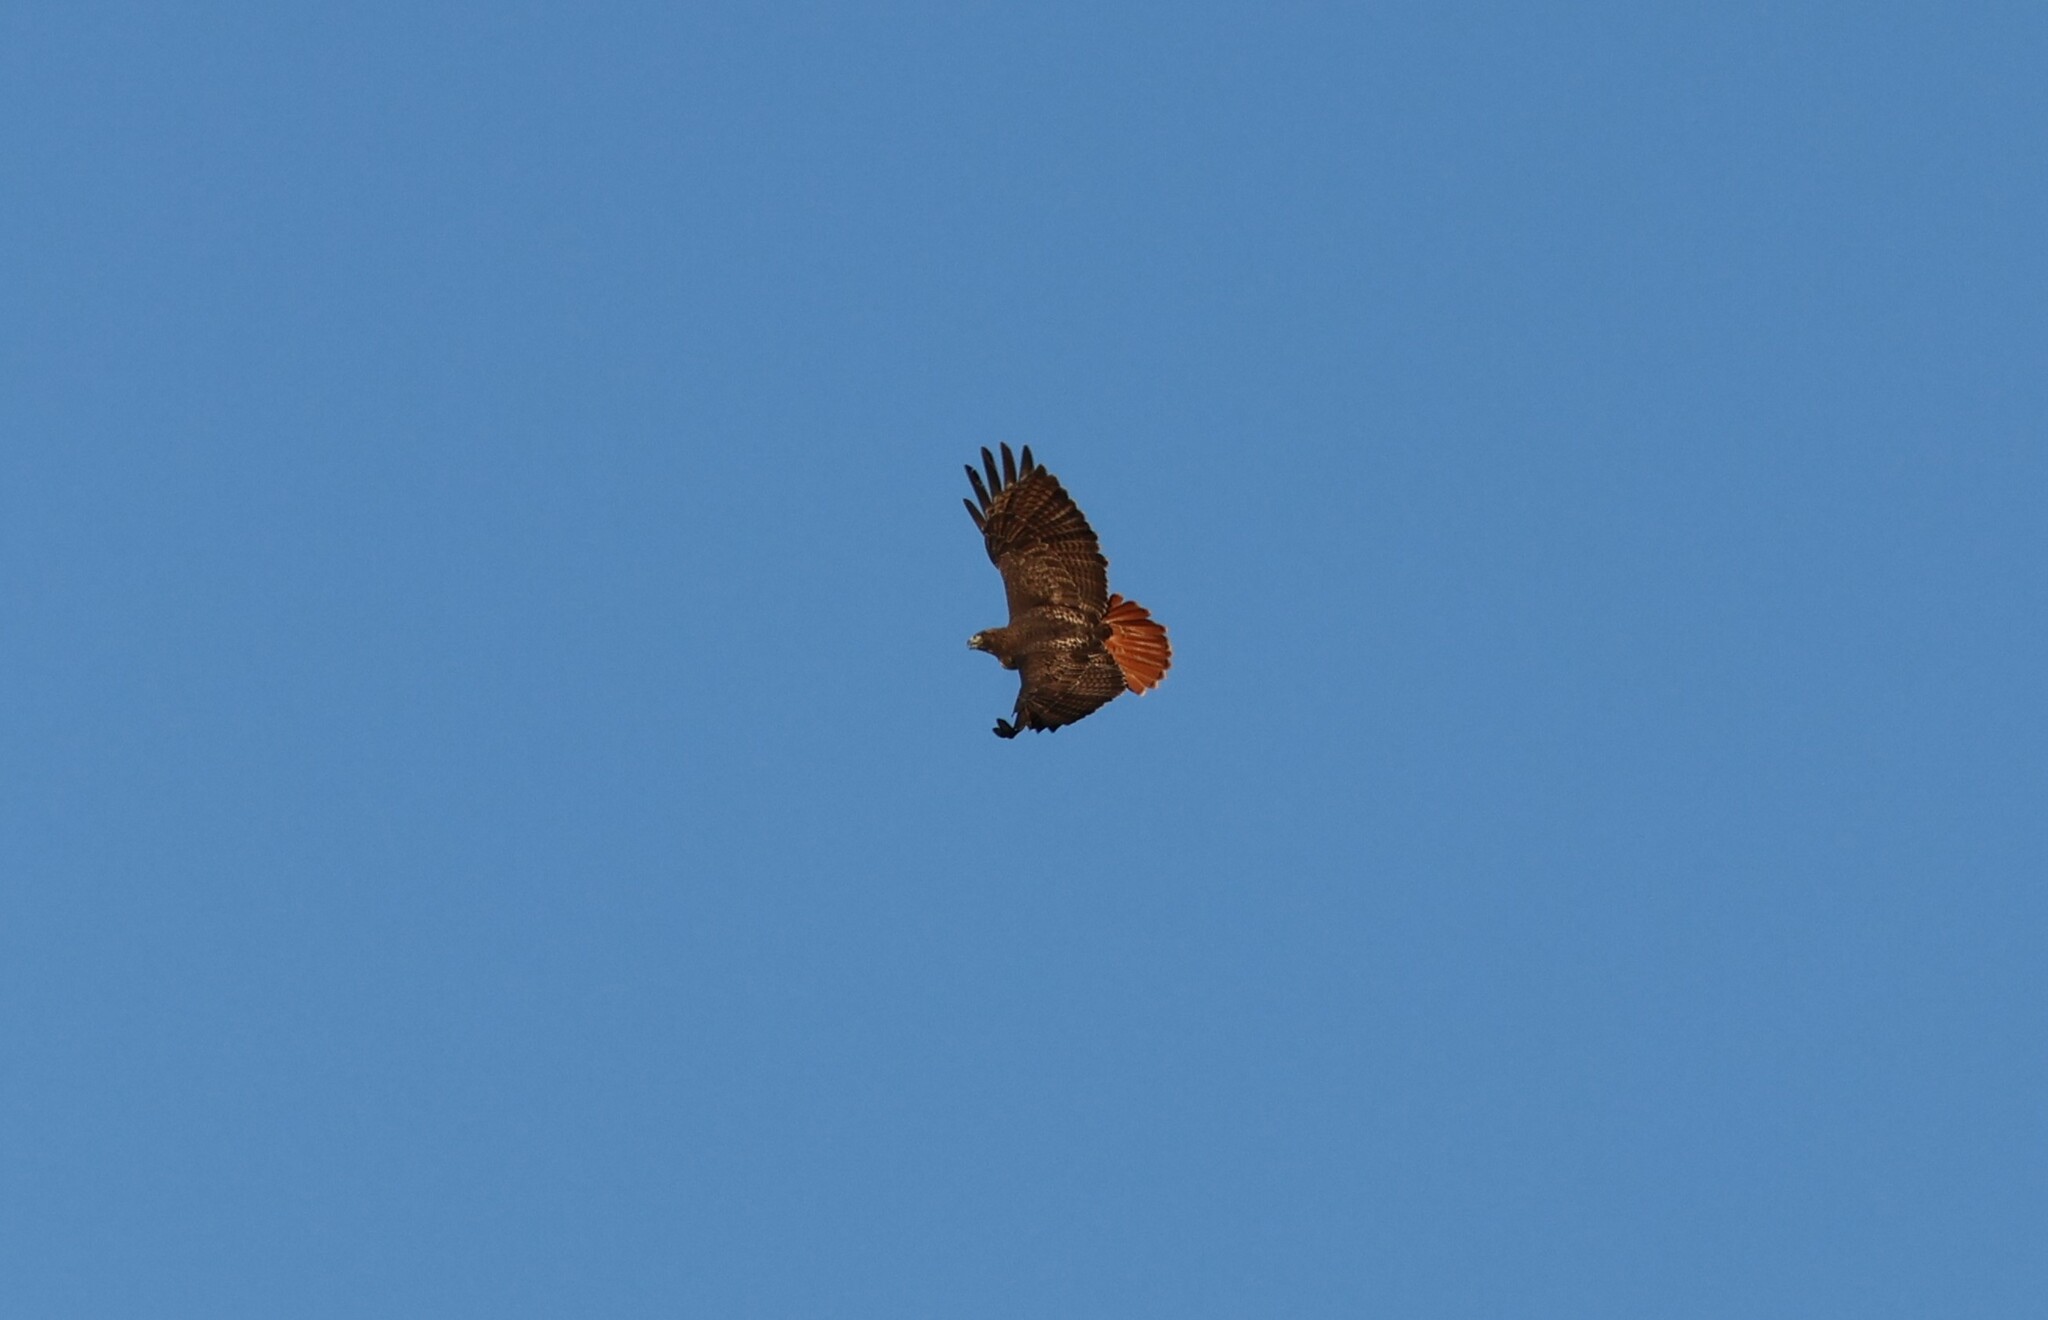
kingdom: Animalia
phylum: Chordata
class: Aves
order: Accipitriformes
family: Accipitridae
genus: Buteo
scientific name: Buteo jamaicensis
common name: Red-tailed hawk
